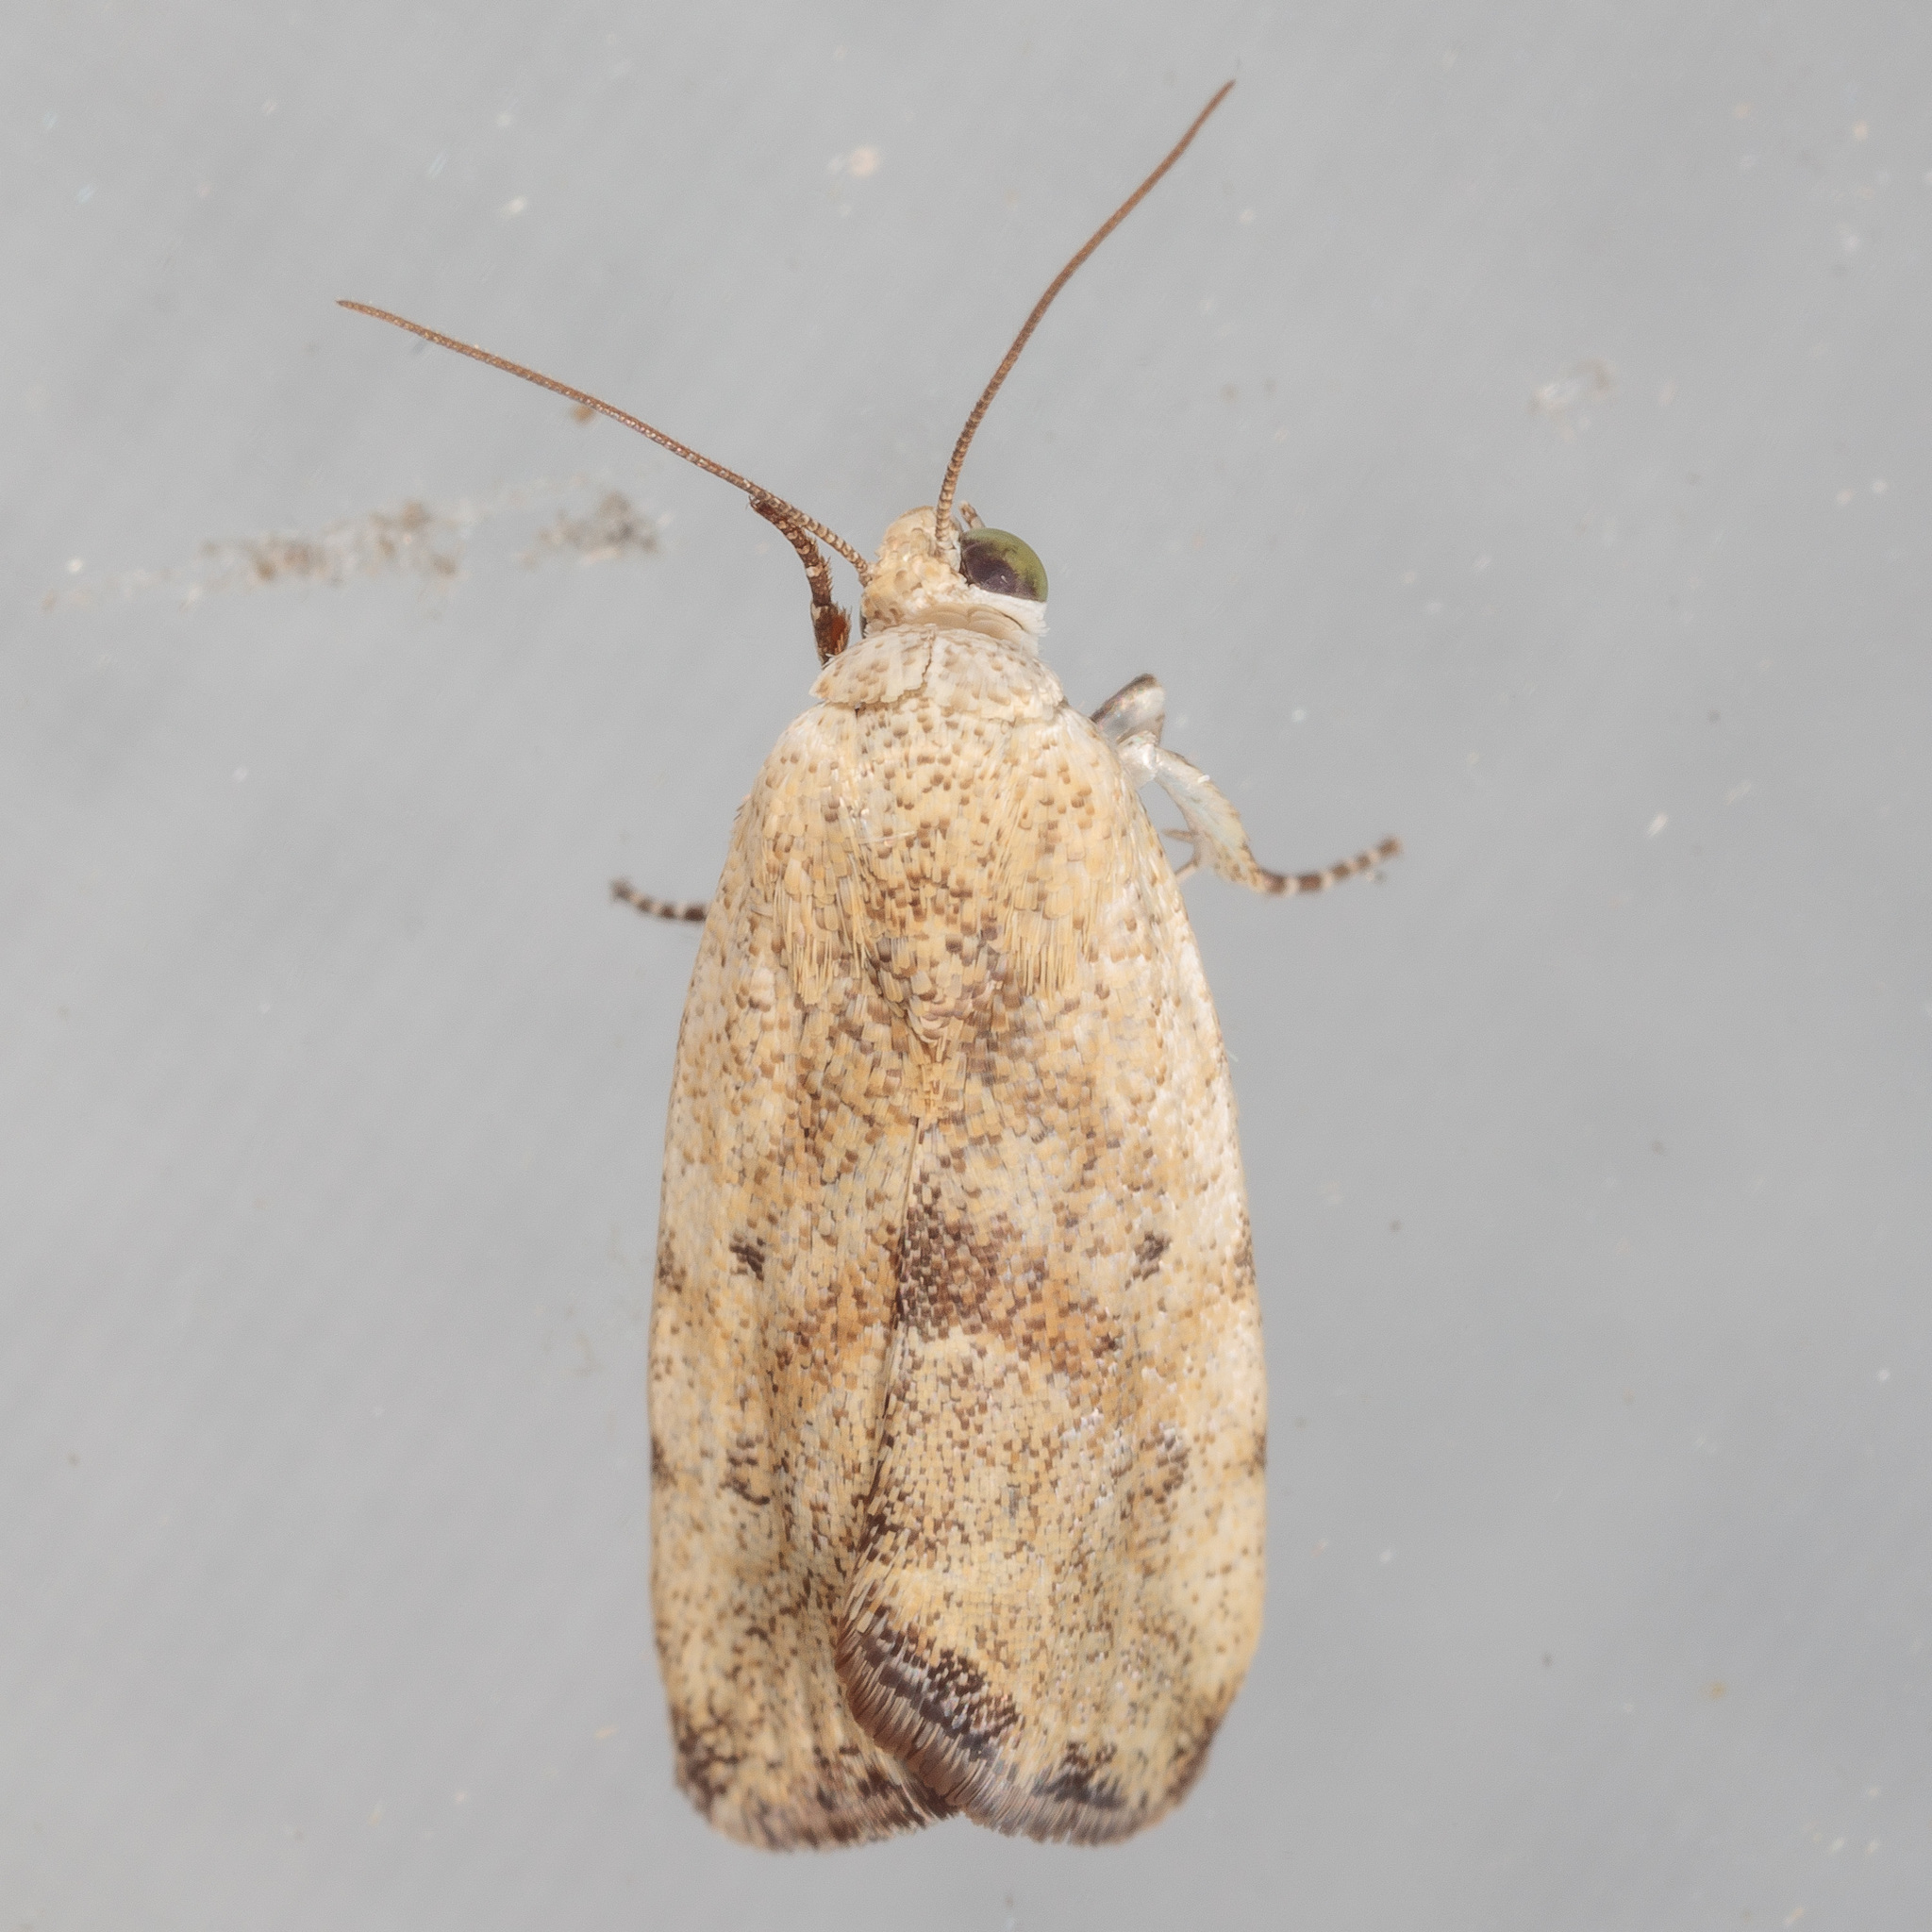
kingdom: Animalia
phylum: Arthropoda
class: Insecta
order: Lepidoptera
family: Noctuidae
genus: Acontia
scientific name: Acontia fasciatella
